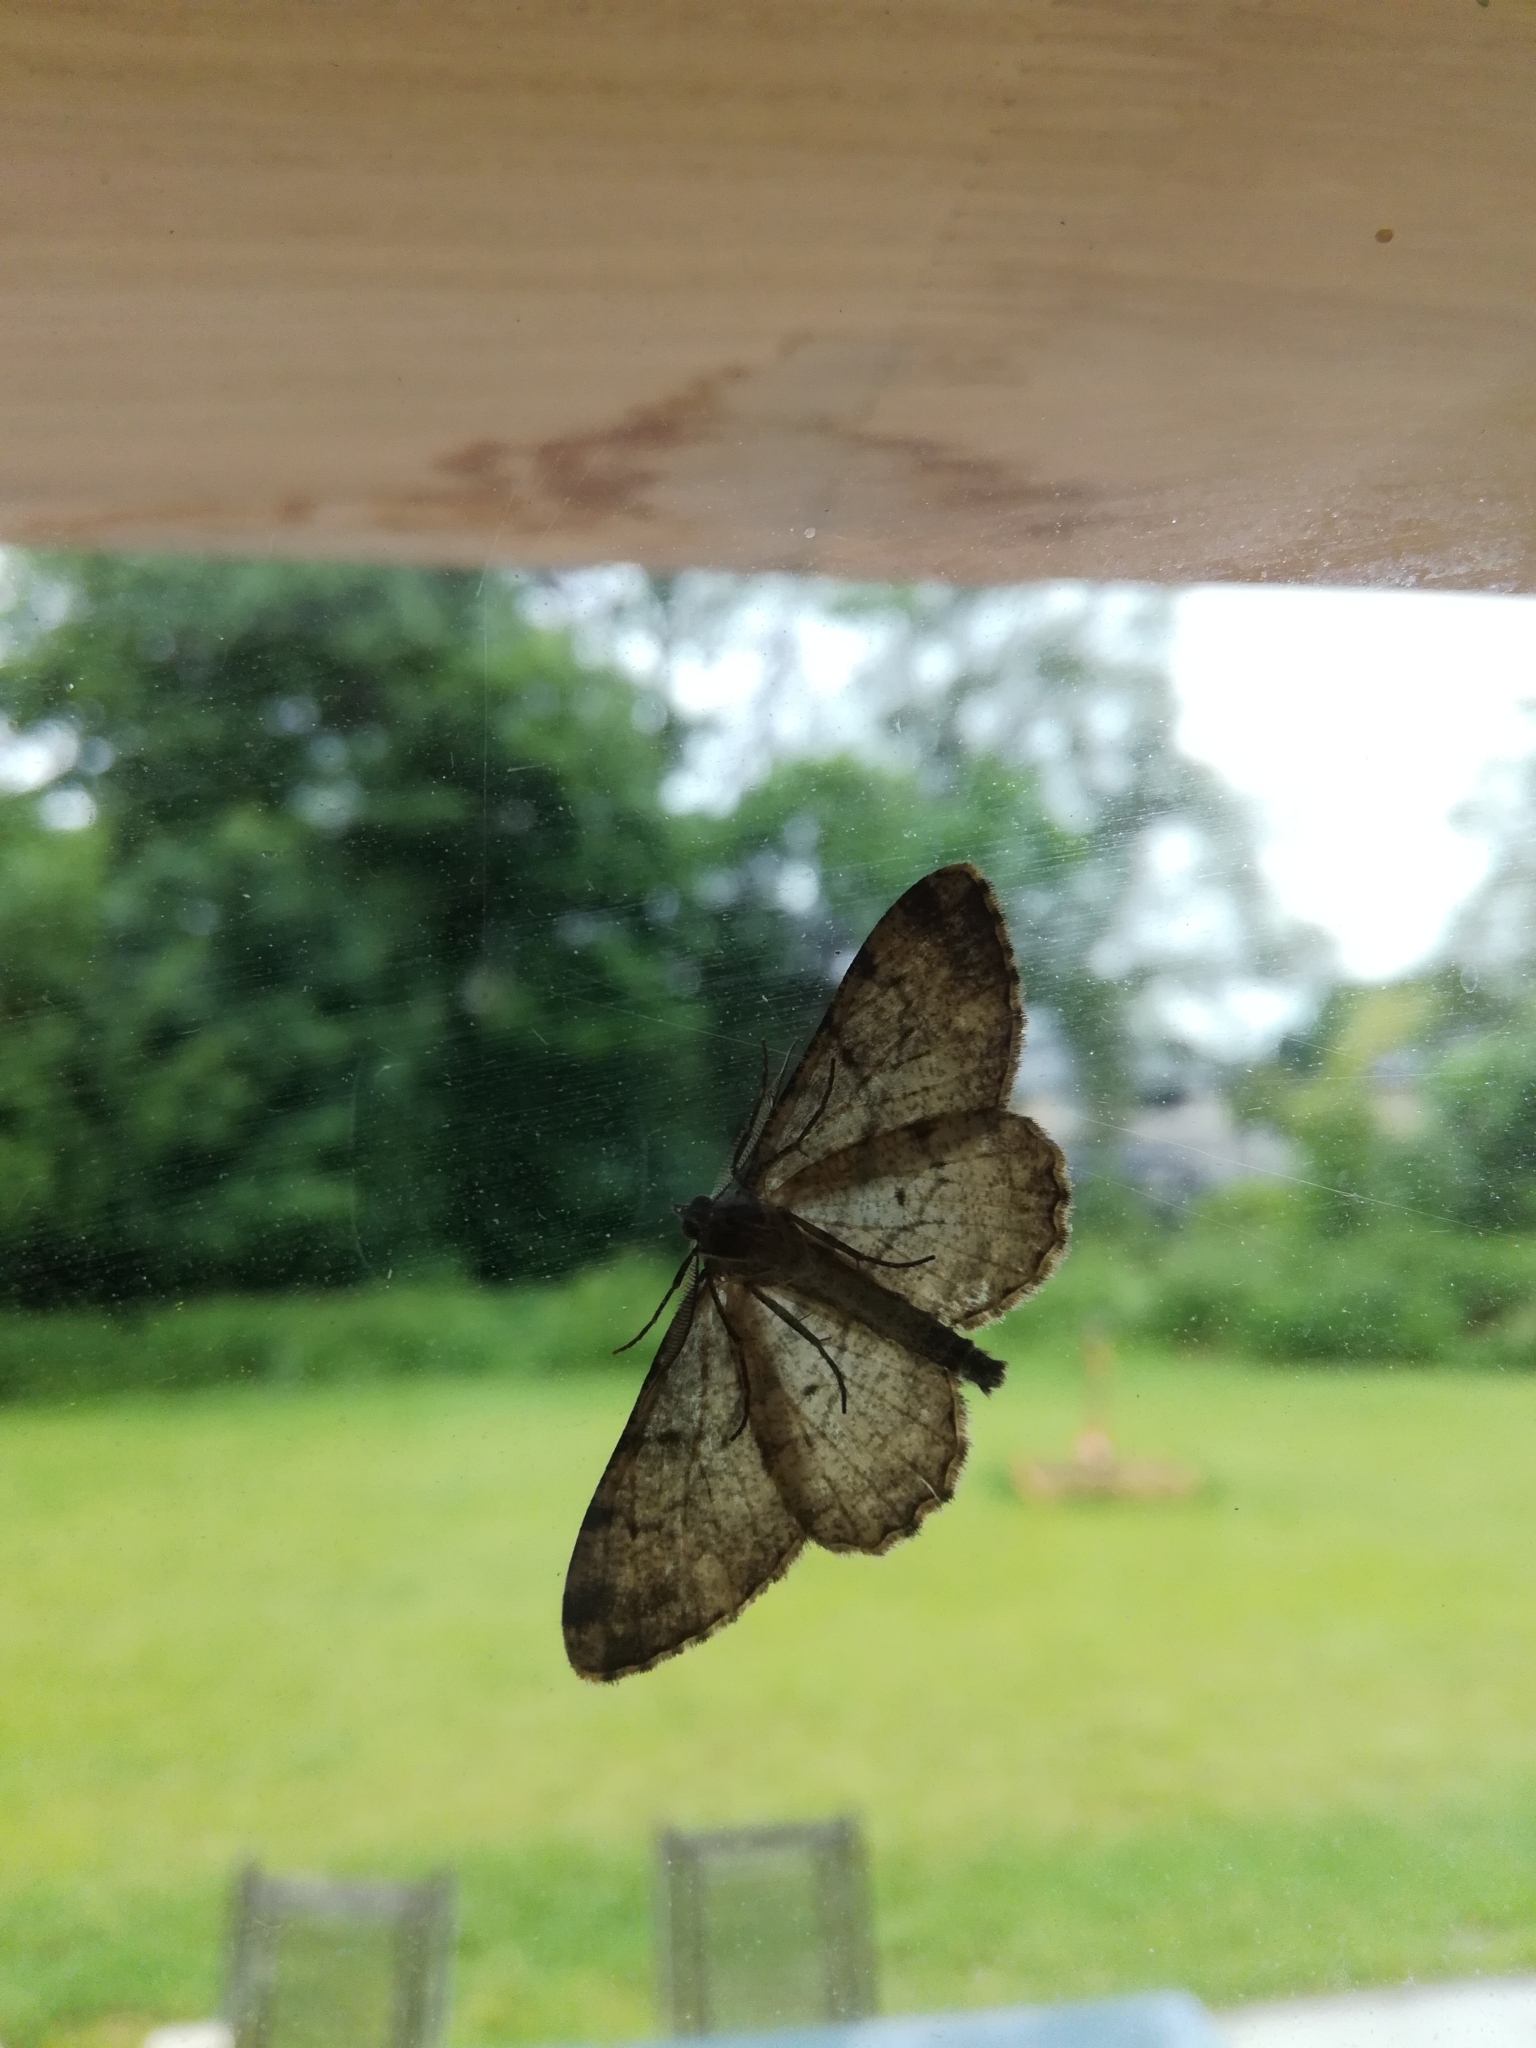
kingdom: Animalia
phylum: Arthropoda
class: Insecta
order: Lepidoptera
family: Geometridae
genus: Peribatodes
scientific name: Peribatodes rhomboidaria
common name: Willow beauty
